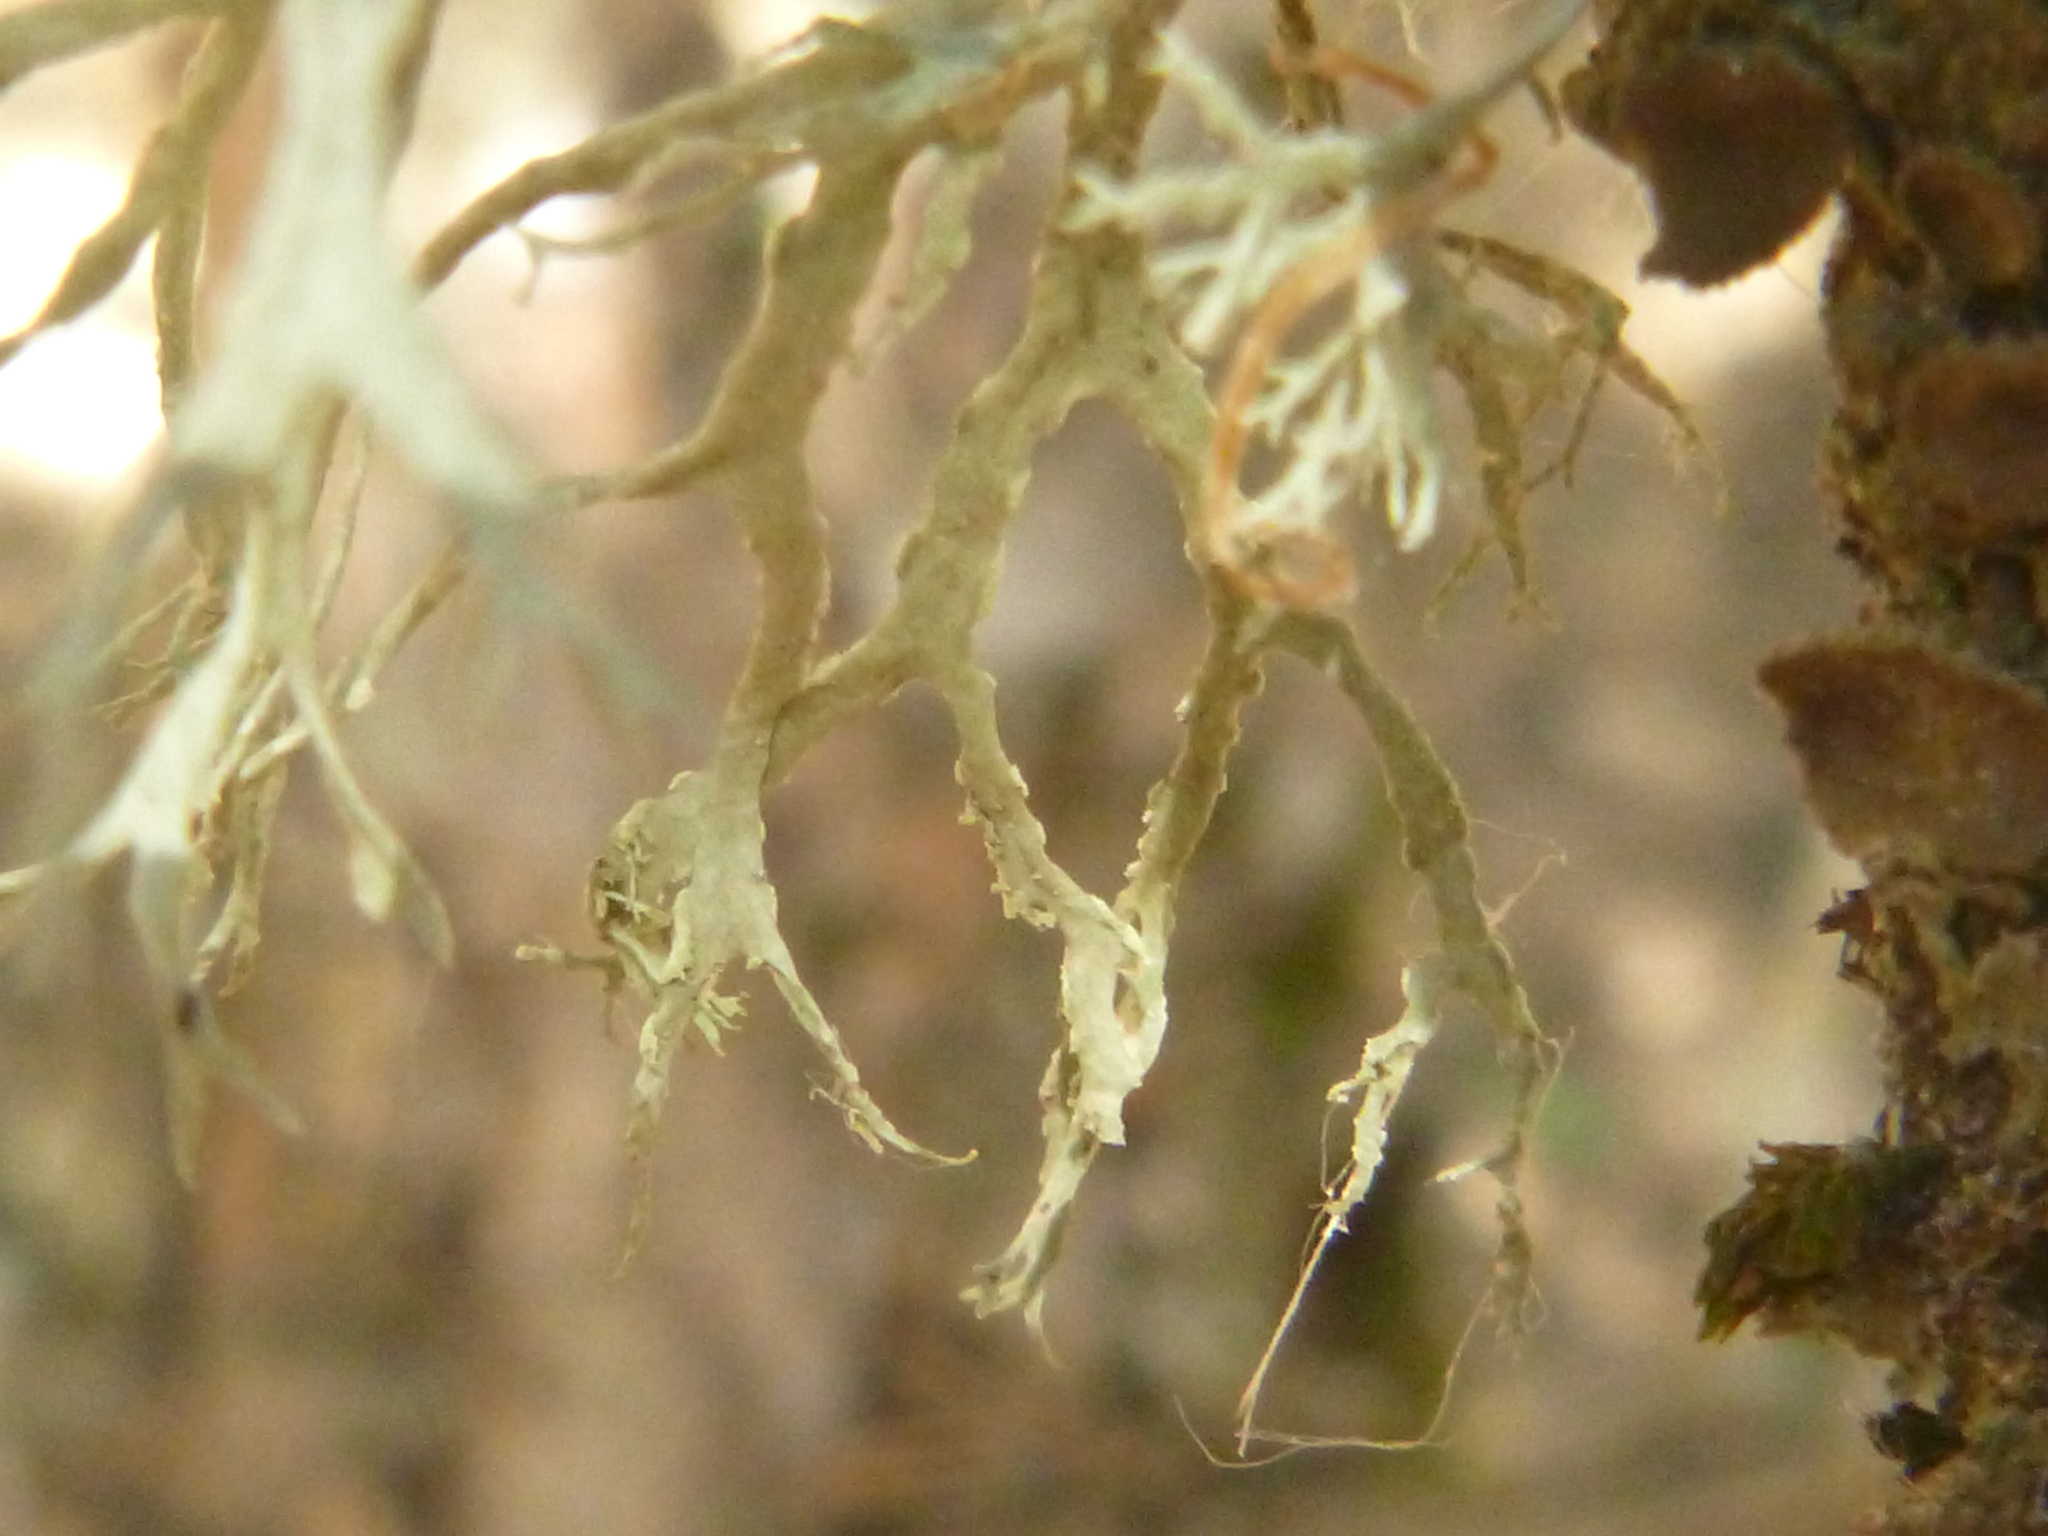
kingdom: Fungi
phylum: Ascomycota
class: Lecanoromycetes
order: Lecanorales
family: Ramalinaceae
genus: Ramalina
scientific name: Ramalina farinacea
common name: Farinose cartilage lichen
